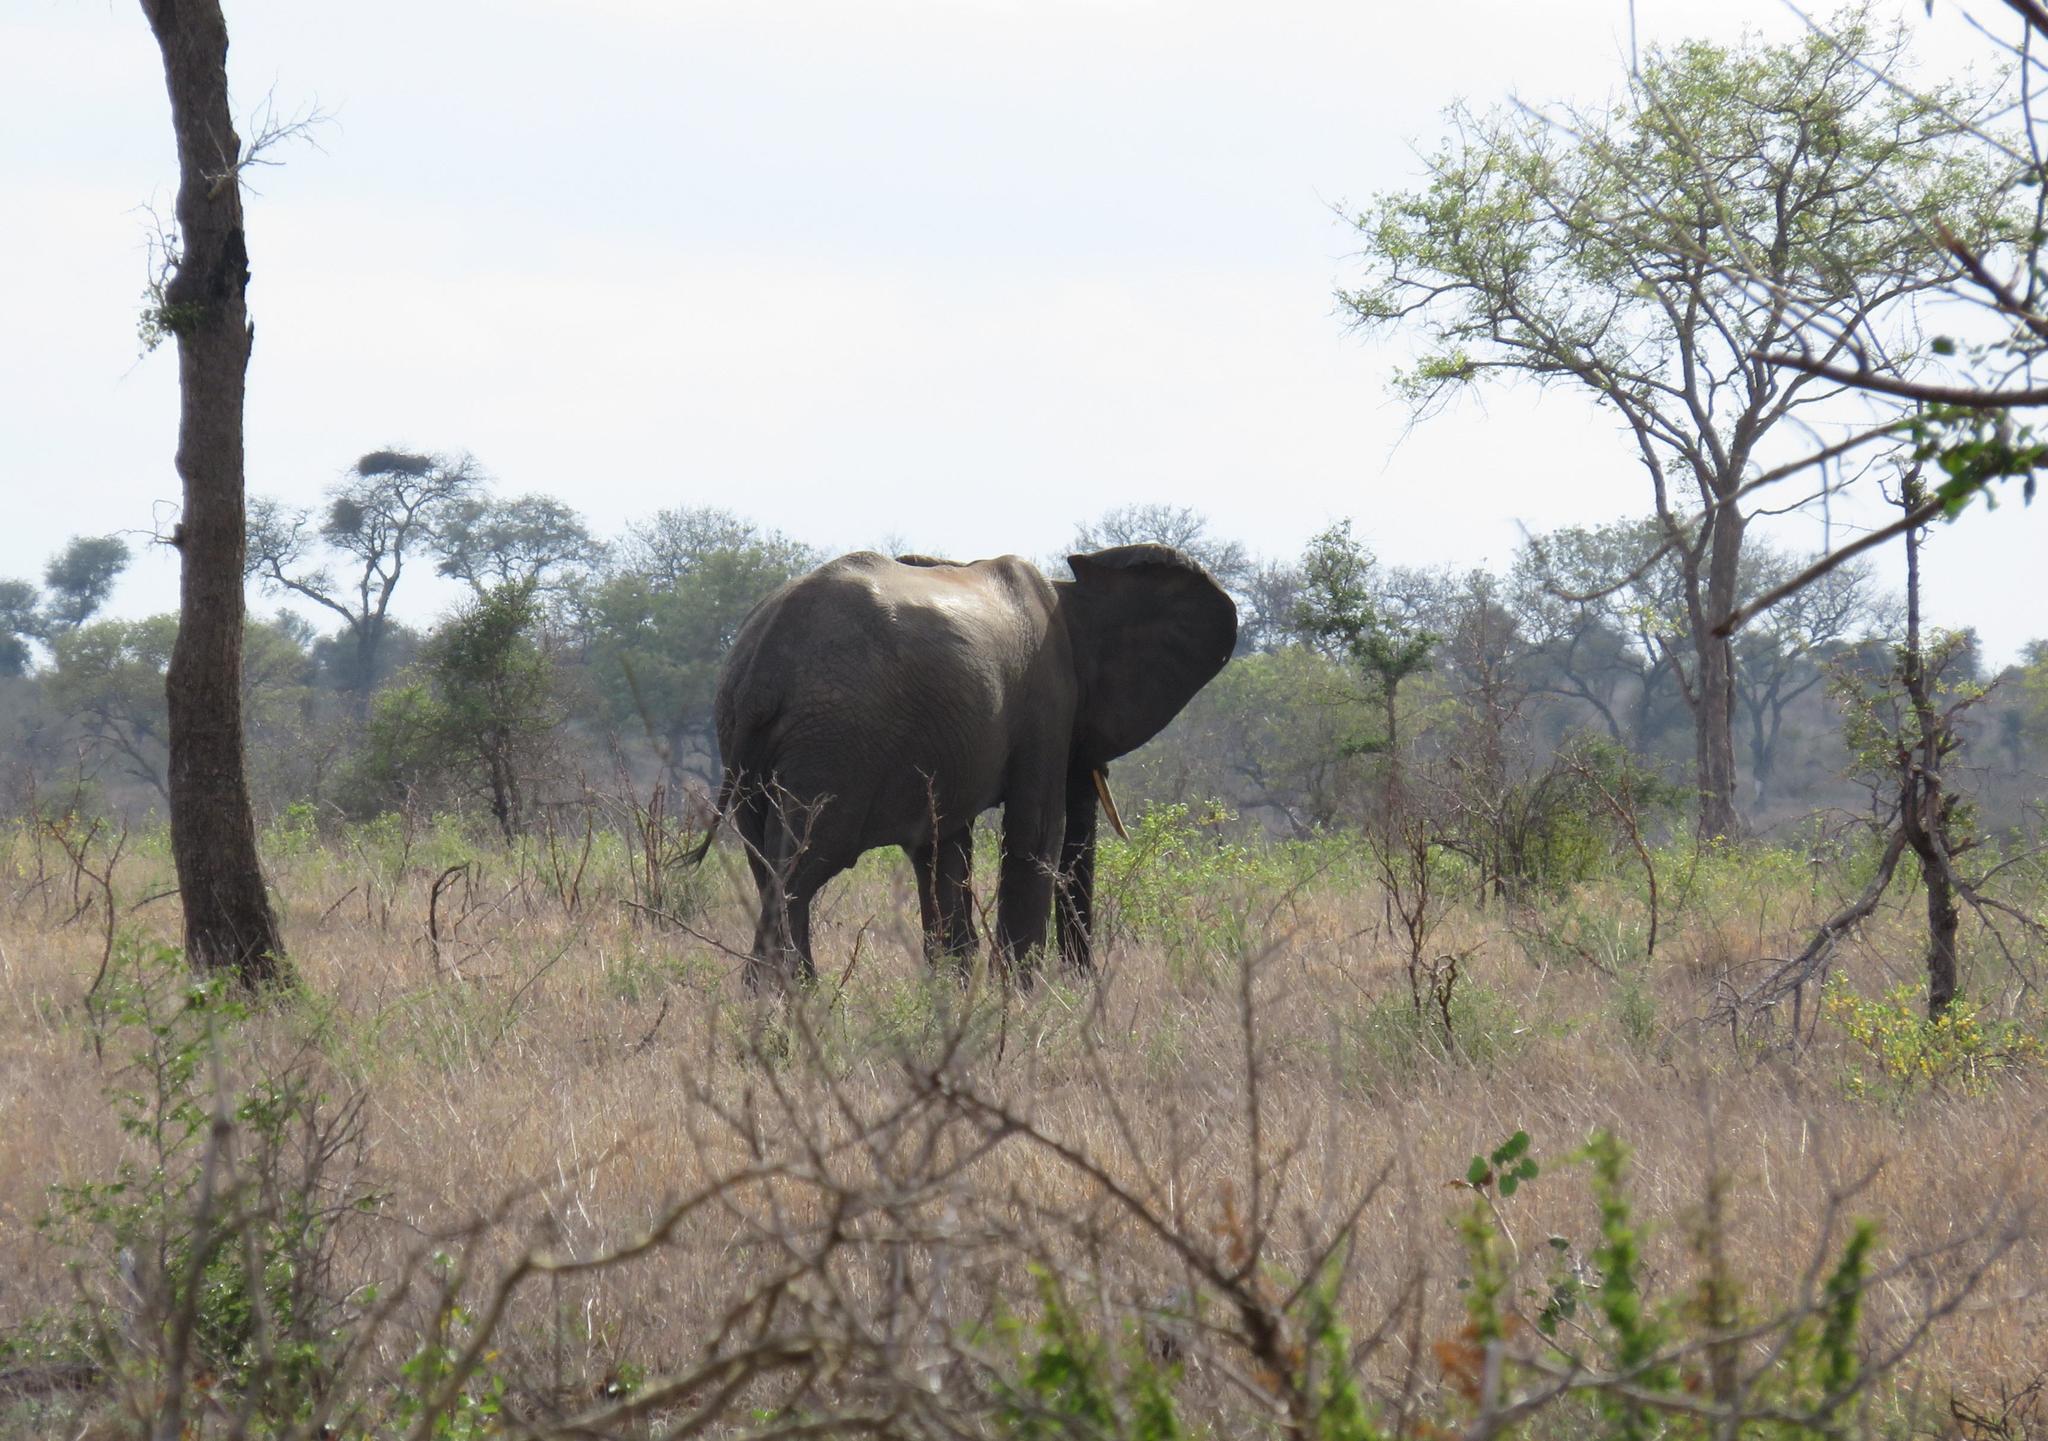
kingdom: Animalia
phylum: Chordata
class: Mammalia
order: Proboscidea
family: Elephantidae
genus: Loxodonta
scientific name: Loxodonta africana
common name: African elephant
